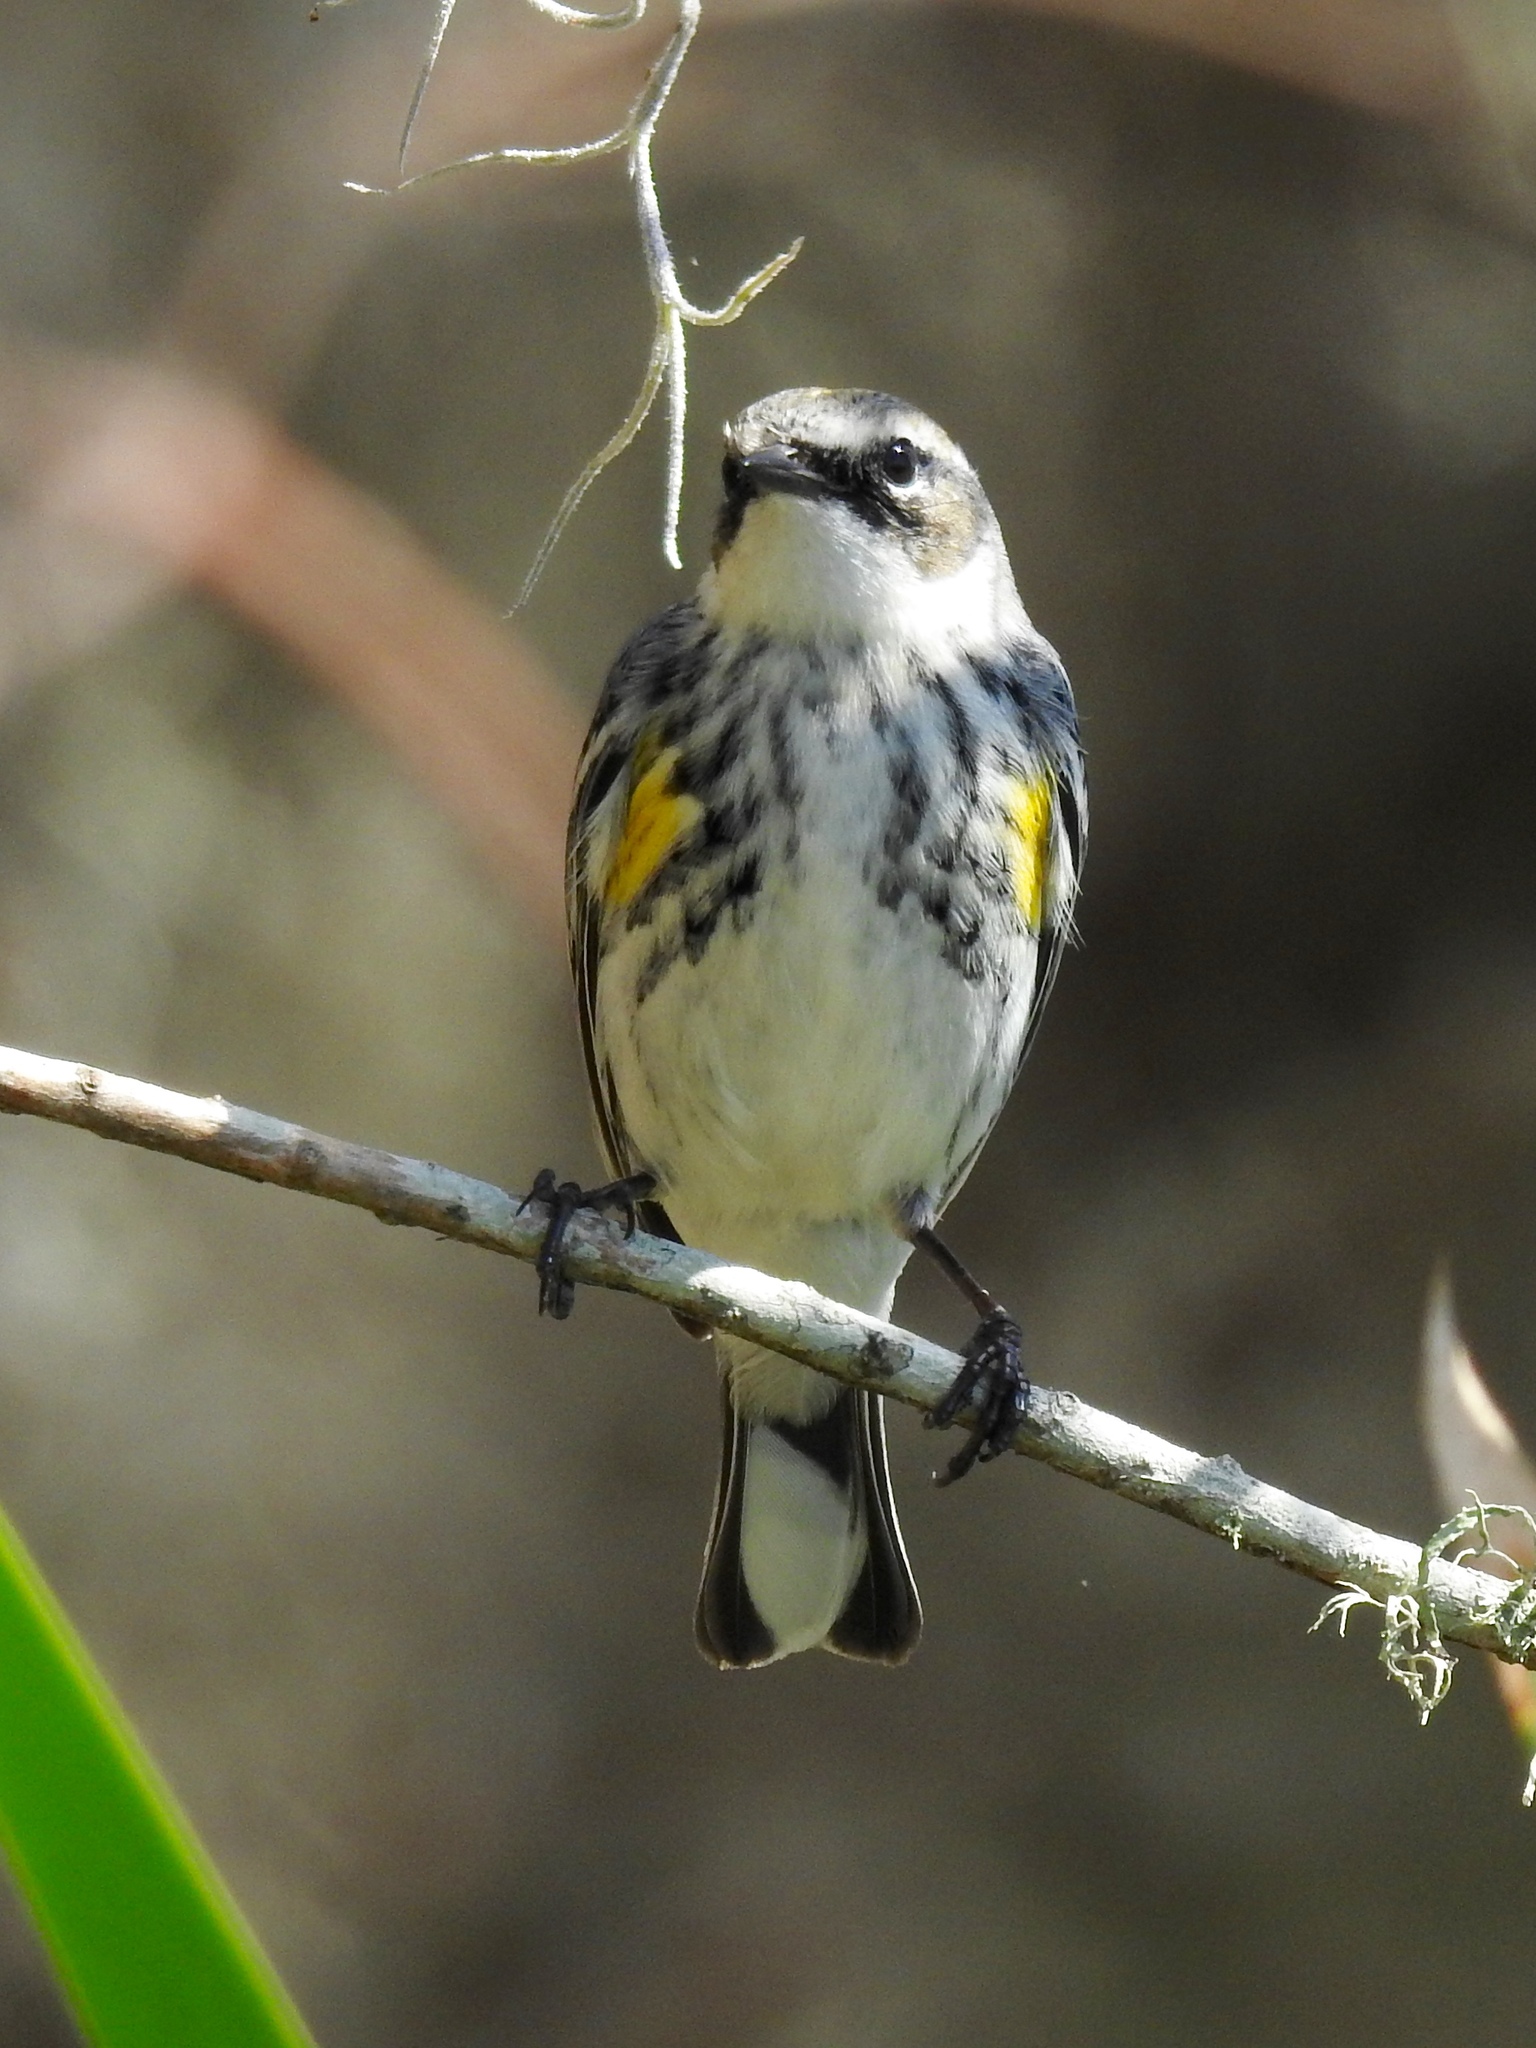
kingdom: Animalia
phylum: Chordata
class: Aves
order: Passeriformes
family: Parulidae
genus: Setophaga
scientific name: Setophaga coronata
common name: Myrtle warbler
